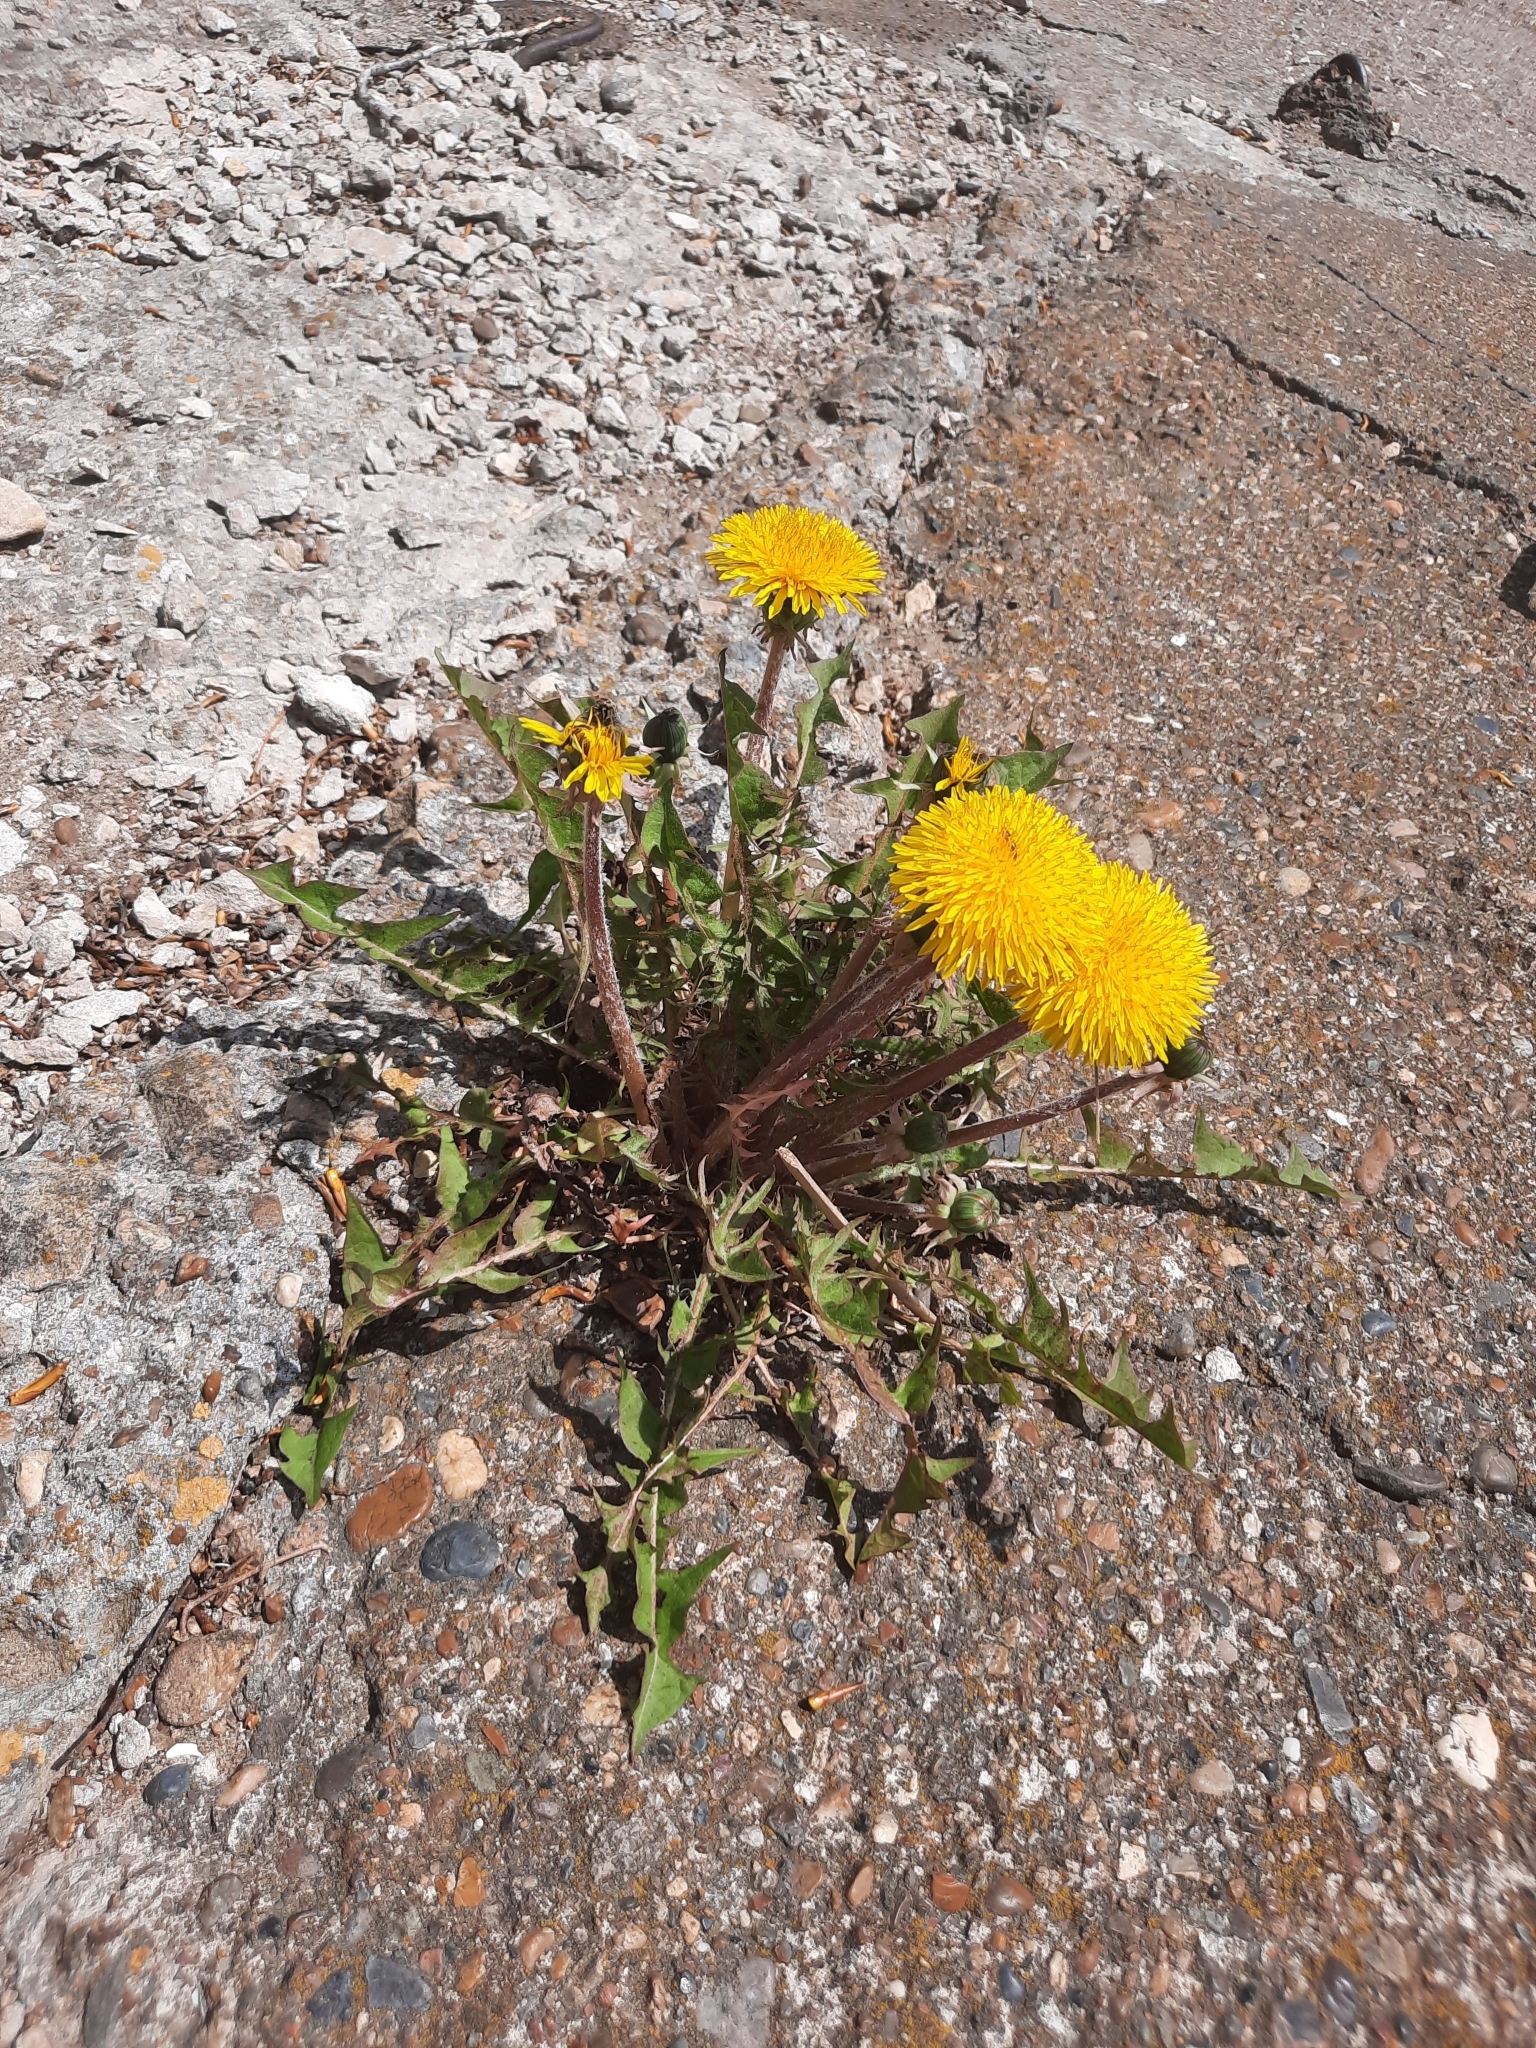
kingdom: Plantae
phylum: Tracheophyta
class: Magnoliopsida
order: Asterales
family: Asteraceae
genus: Taraxacum
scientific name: Taraxacum officinale
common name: Common dandelion
